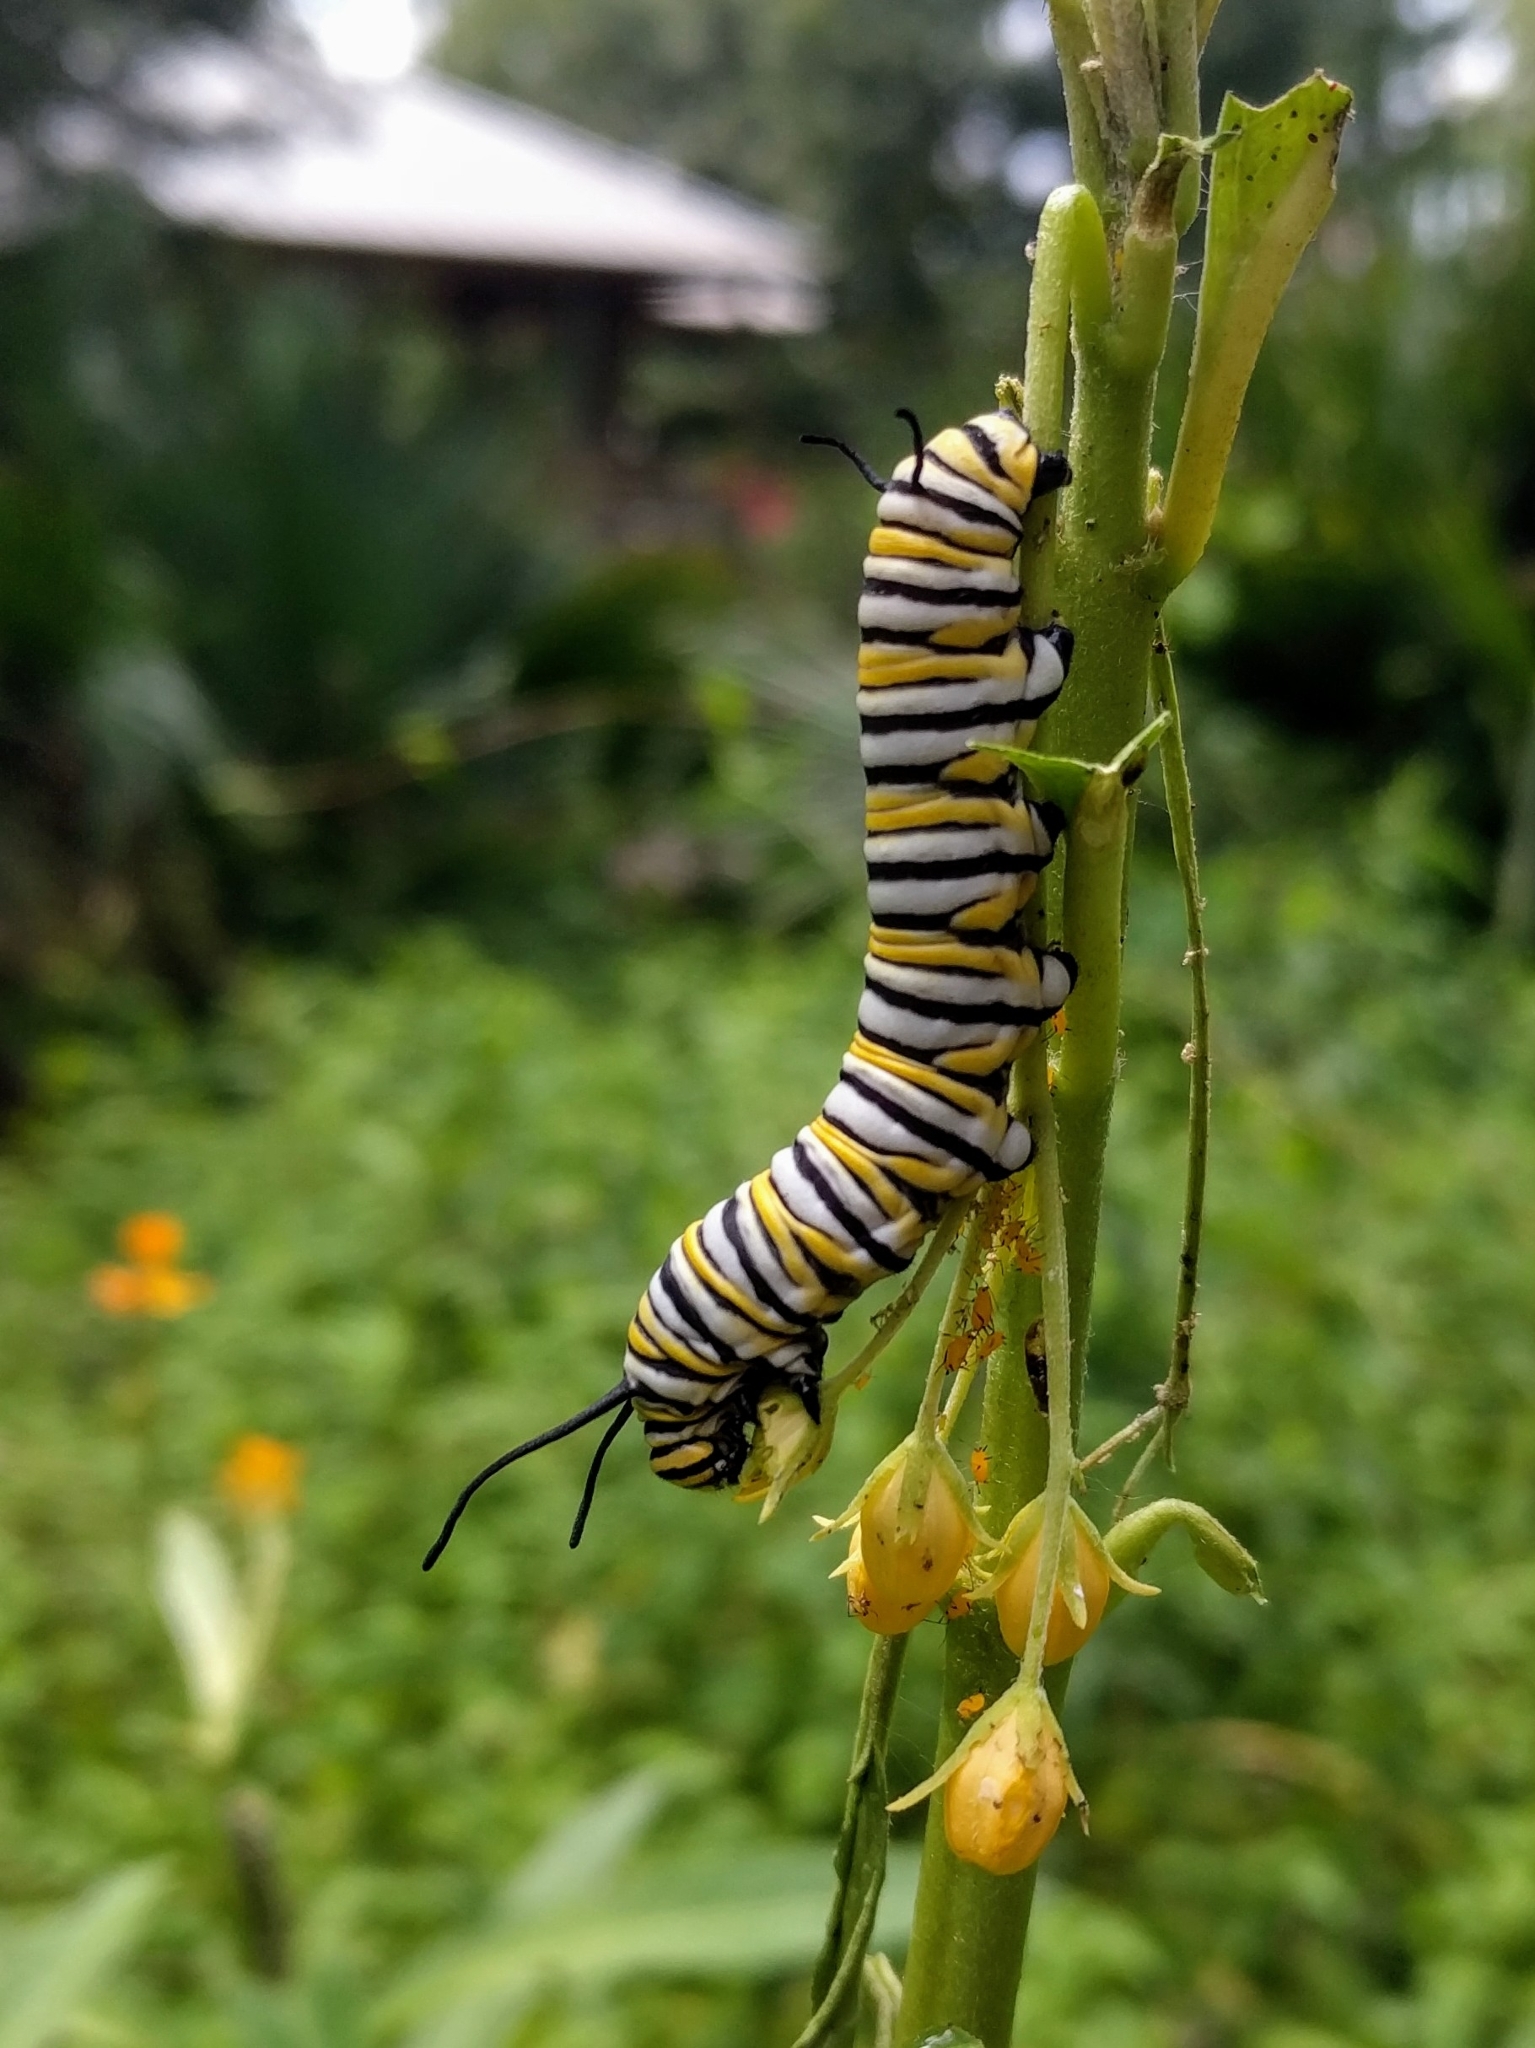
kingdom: Animalia
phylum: Arthropoda
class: Insecta
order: Lepidoptera
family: Nymphalidae
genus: Danaus
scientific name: Danaus plexippus
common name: Monarch
